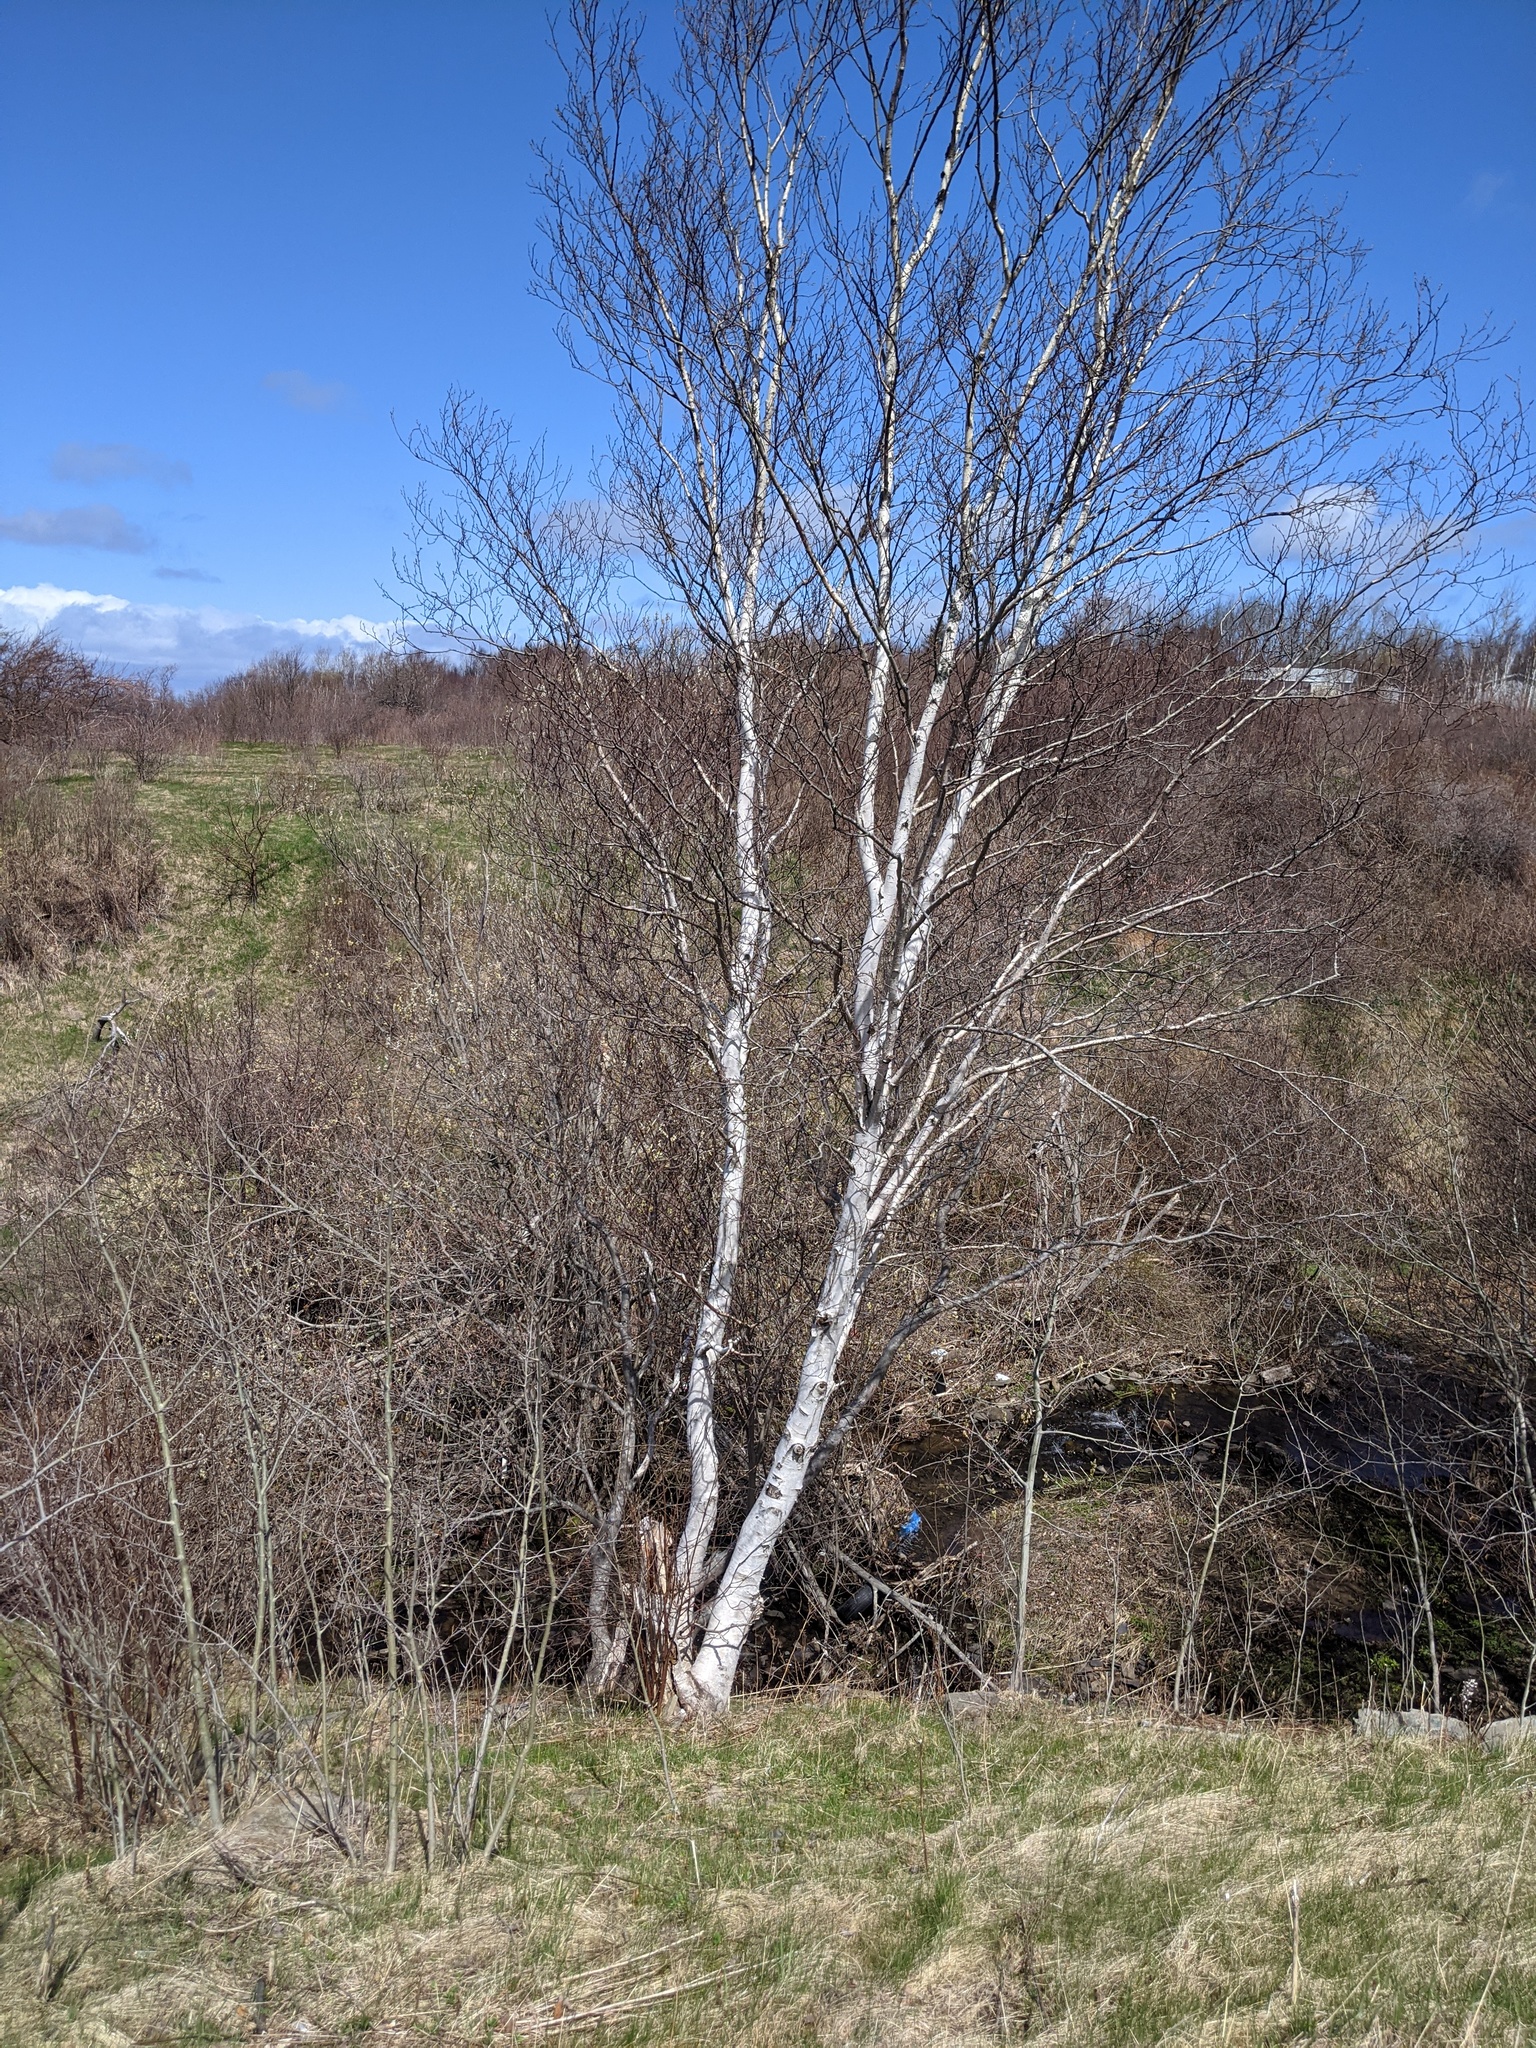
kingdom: Plantae
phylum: Tracheophyta
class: Magnoliopsida
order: Fagales
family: Betulaceae
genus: Betula
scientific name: Betula papyrifera
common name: Paper birch
